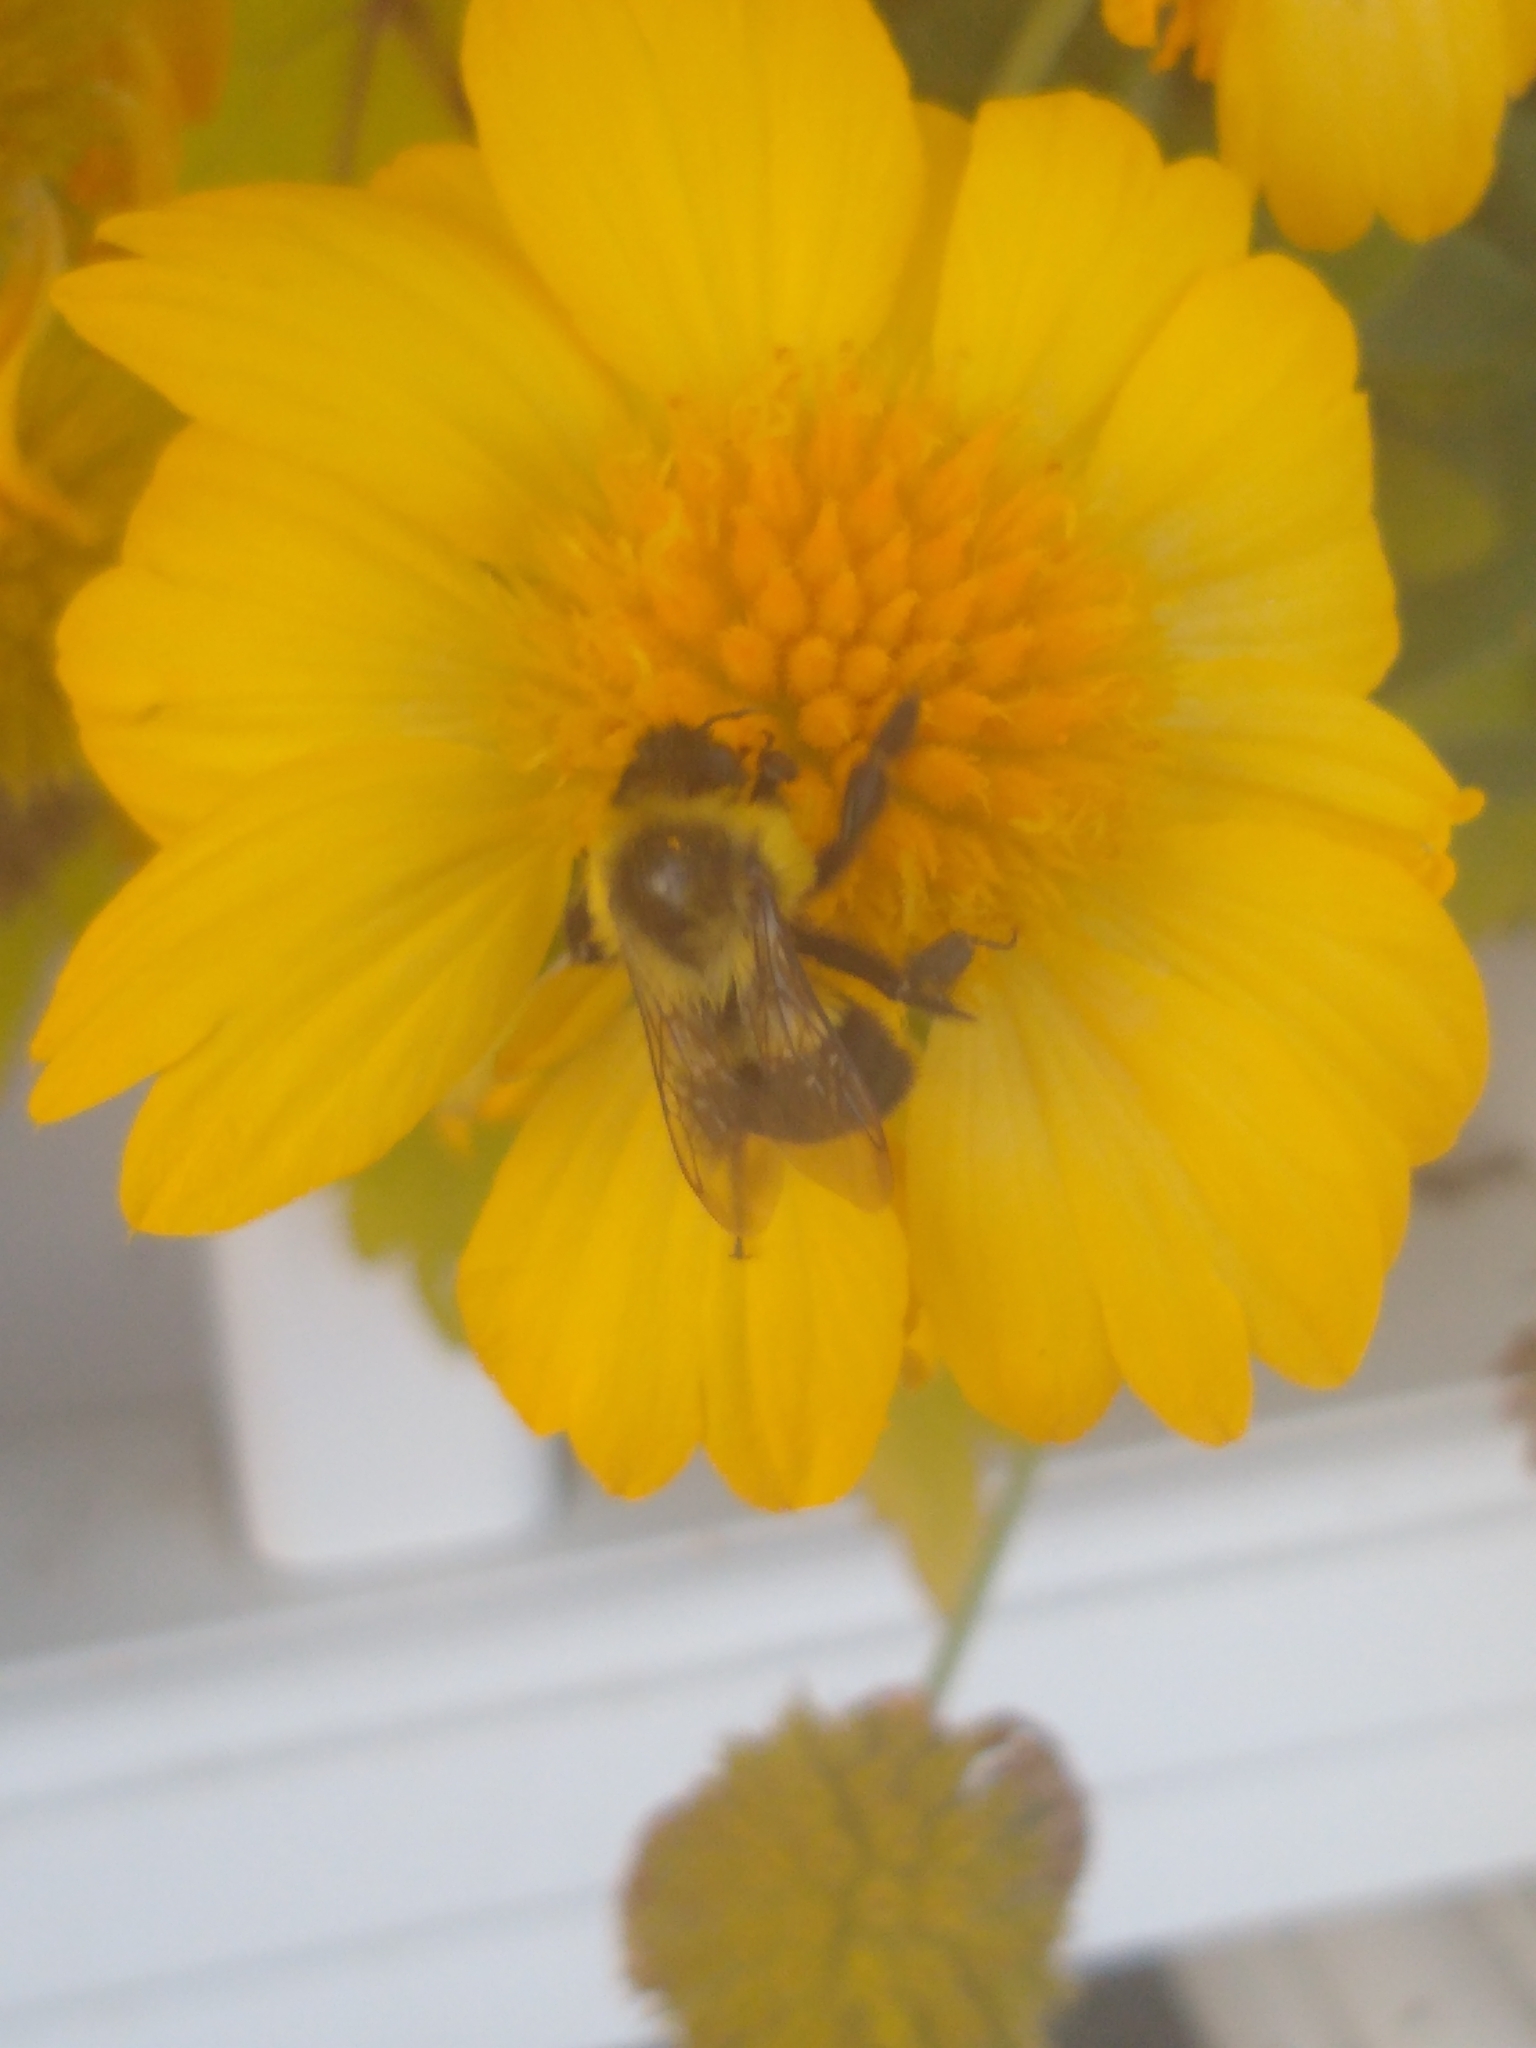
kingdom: Animalia
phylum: Arthropoda
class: Insecta
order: Hymenoptera
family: Apidae
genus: Bombus
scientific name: Bombus impatiens
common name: Common eastern bumble bee
